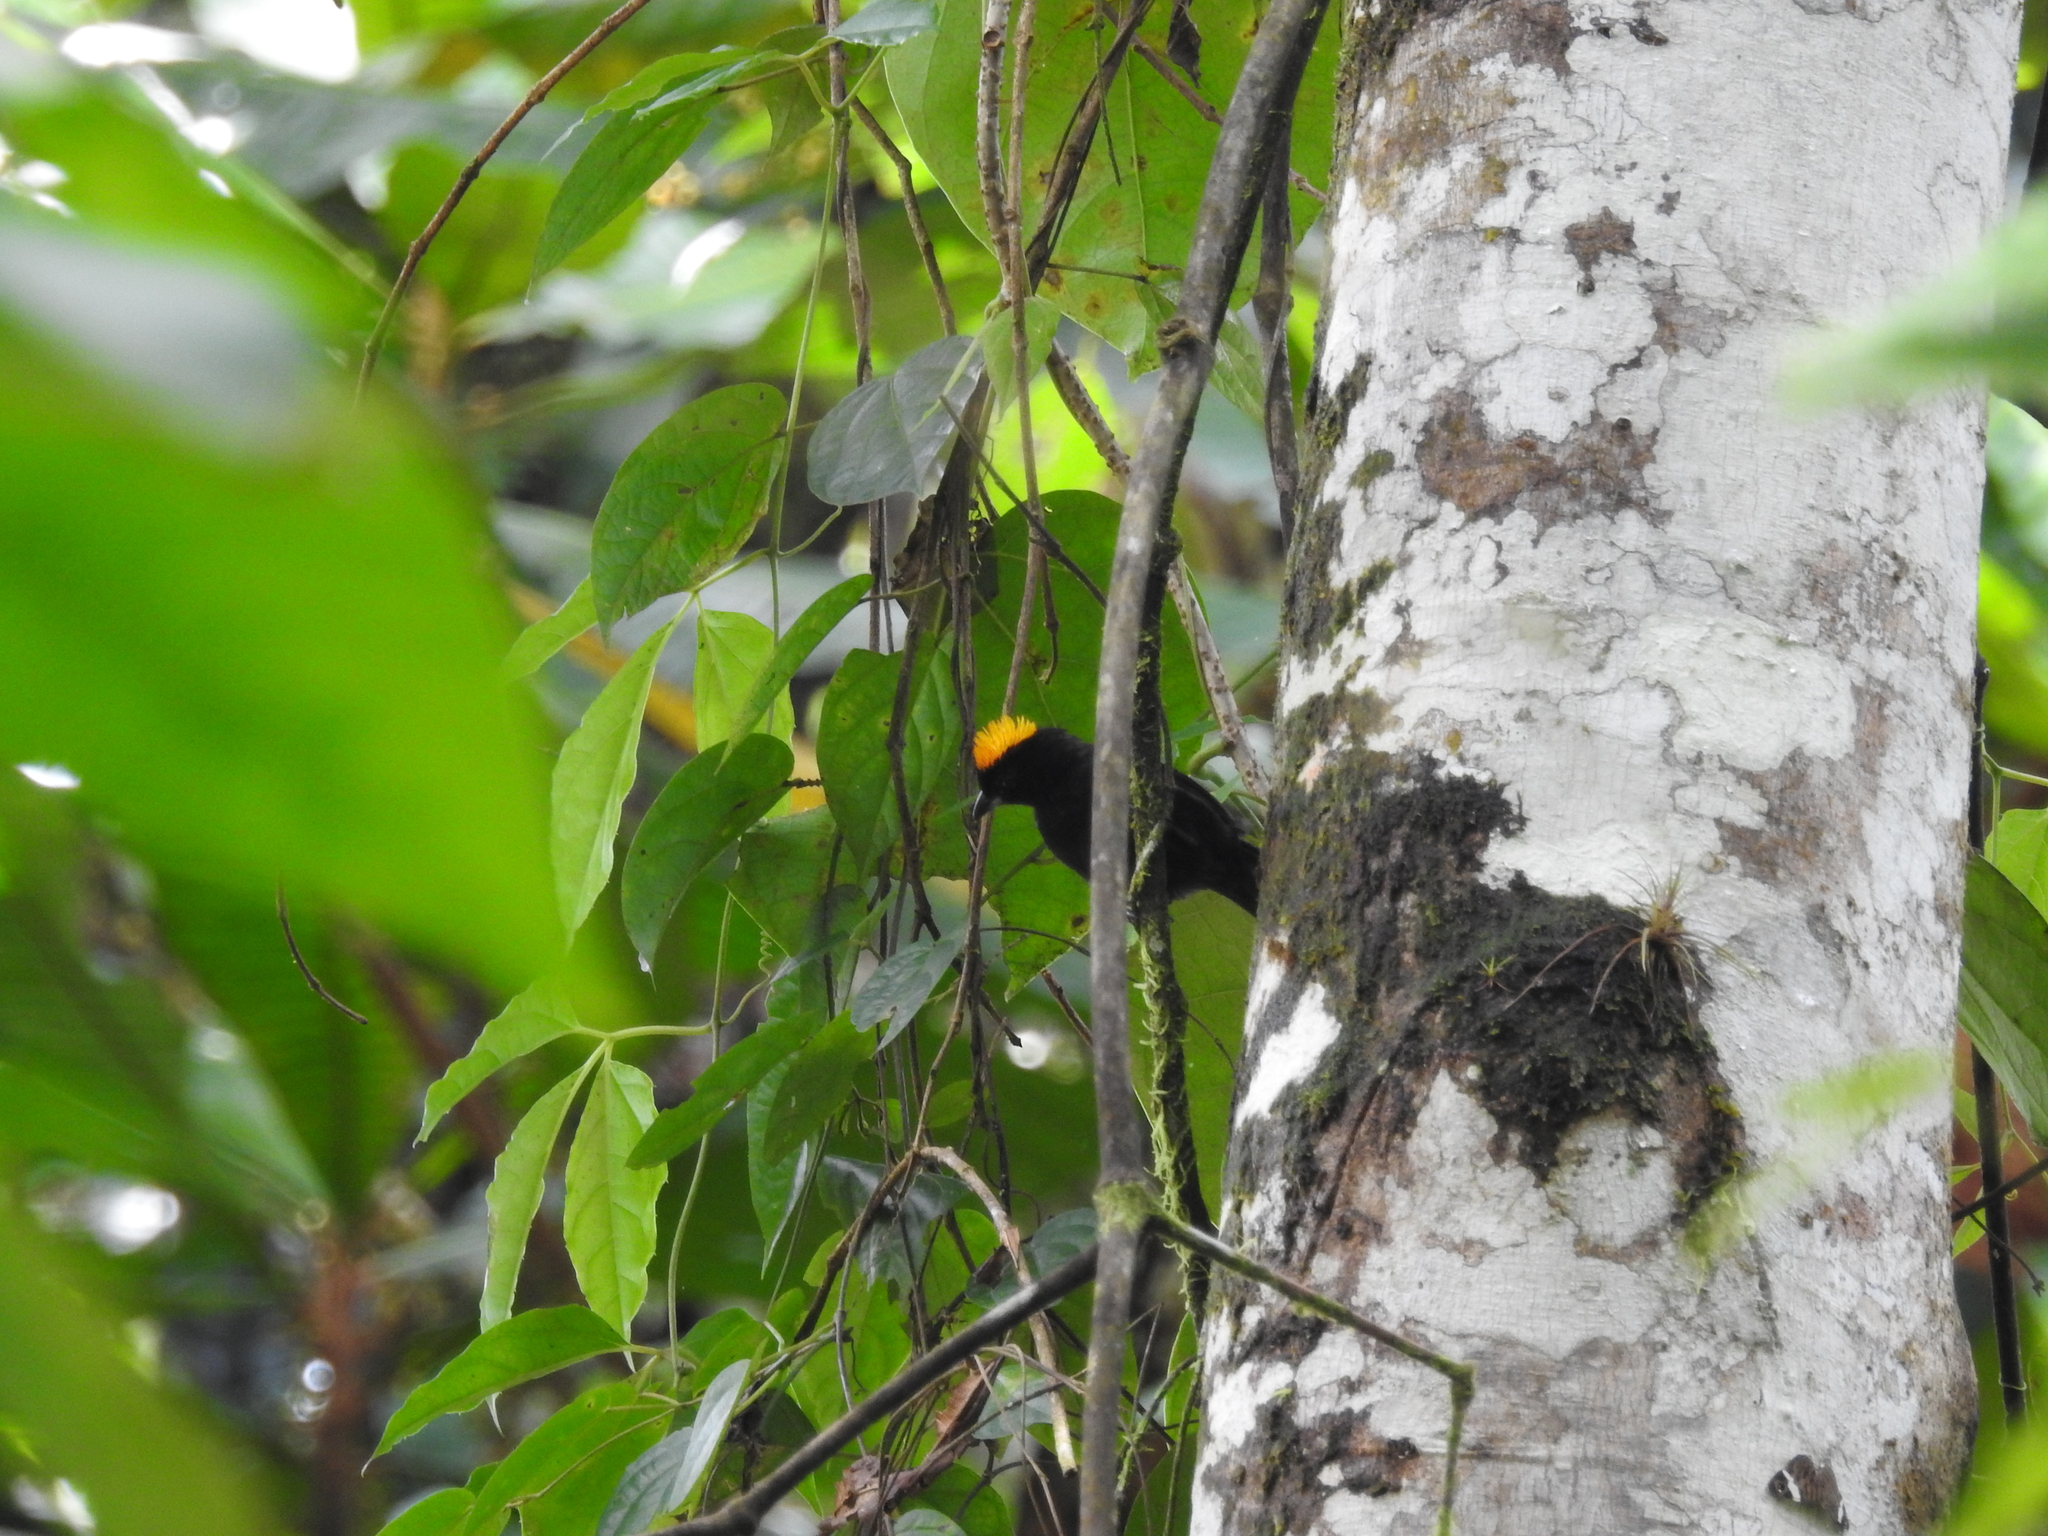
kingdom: Animalia
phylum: Chordata
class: Aves
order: Passeriformes
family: Thraupidae
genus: Tachyphonus
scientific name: Tachyphonus delatrii
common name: Tawny-crested tanager
